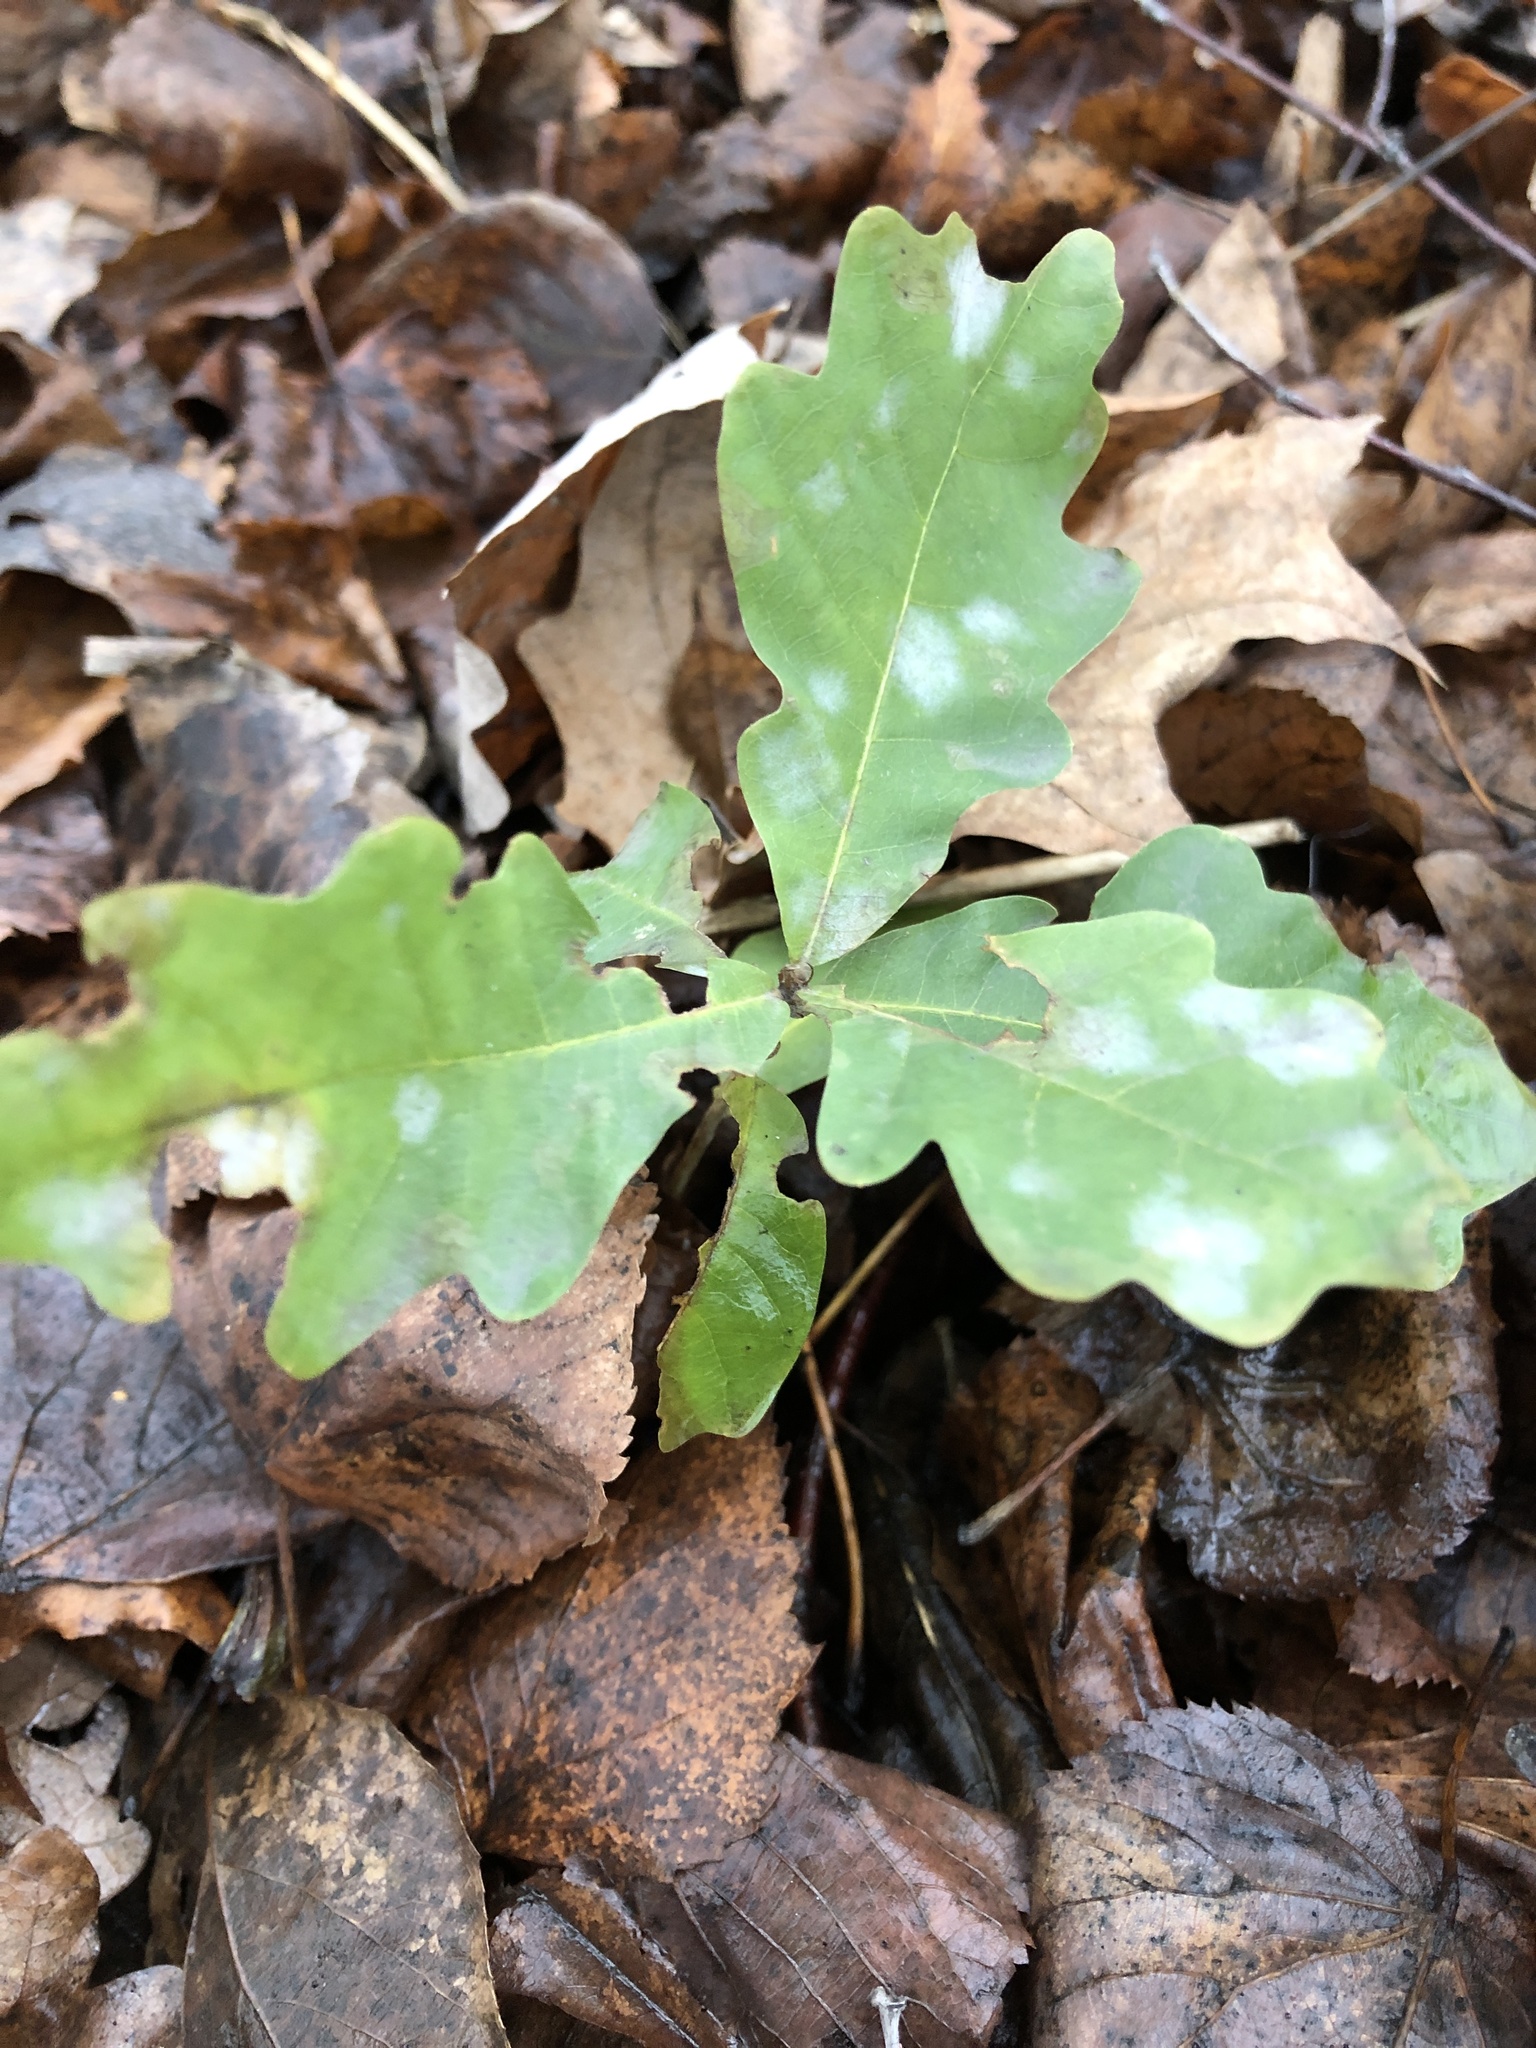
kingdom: Plantae
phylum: Tracheophyta
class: Magnoliopsida
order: Fagales
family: Fagaceae
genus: Quercus
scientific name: Quercus robur
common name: Pedunculate oak
